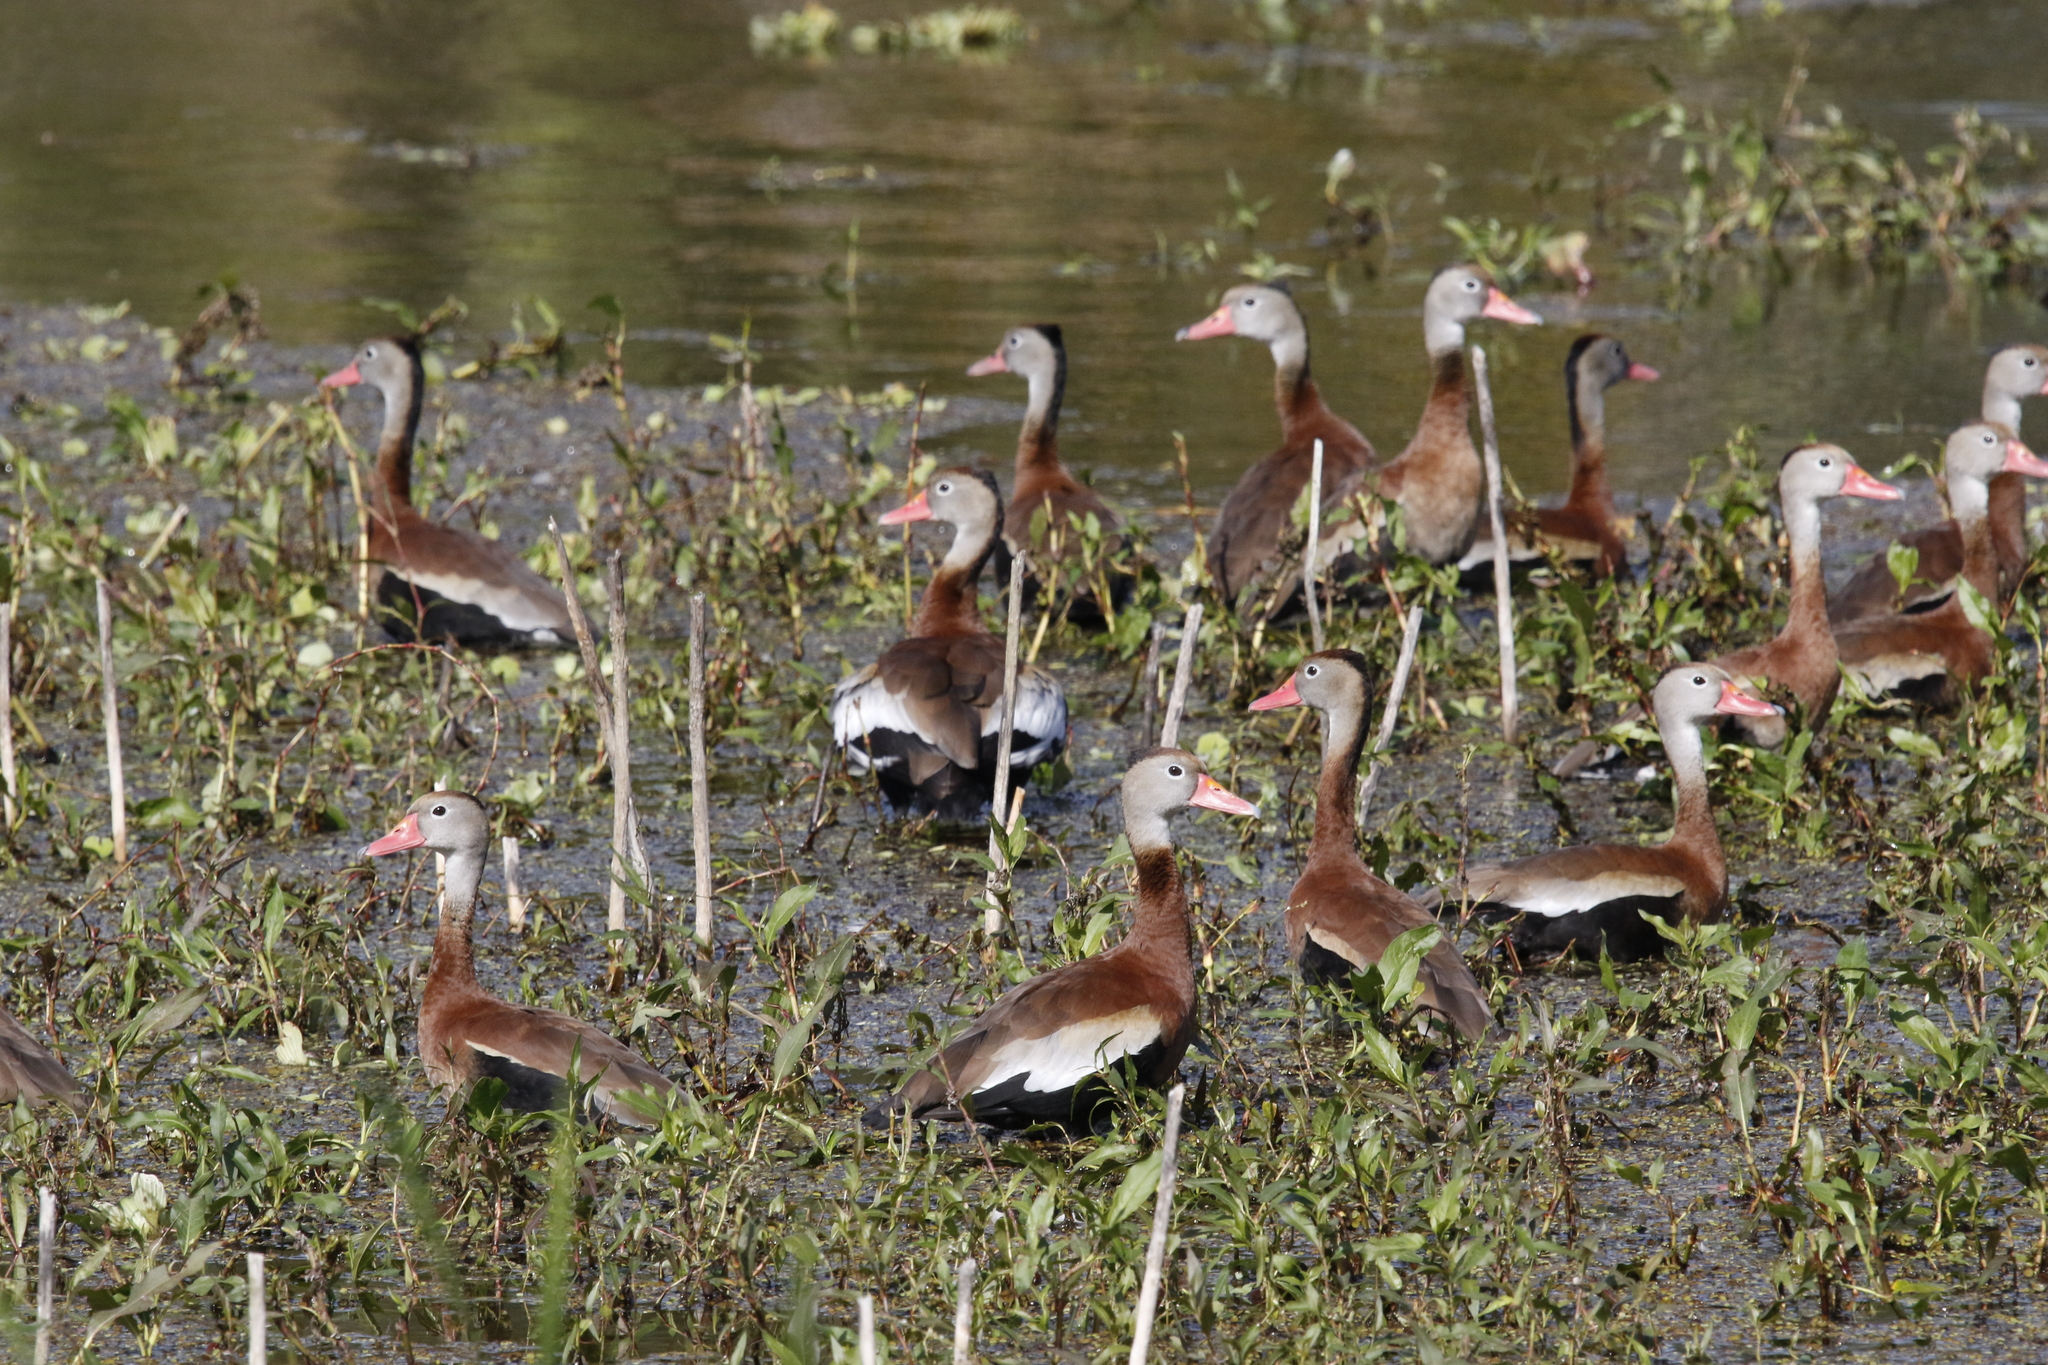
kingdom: Animalia
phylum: Chordata
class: Aves
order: Anseriformes
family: Anatidae
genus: Dendrocygna
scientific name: Dendrocygna autumnalis
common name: Black-bellied whistling duck
